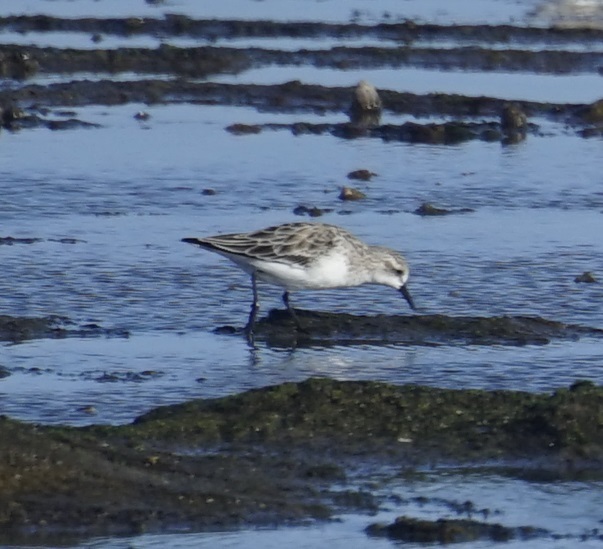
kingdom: Animalia
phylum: Chordata
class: Aves
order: Charadriiformes
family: Scolopacidae
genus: Calidris
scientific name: Calidris ruficollis
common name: Red-necked stint
